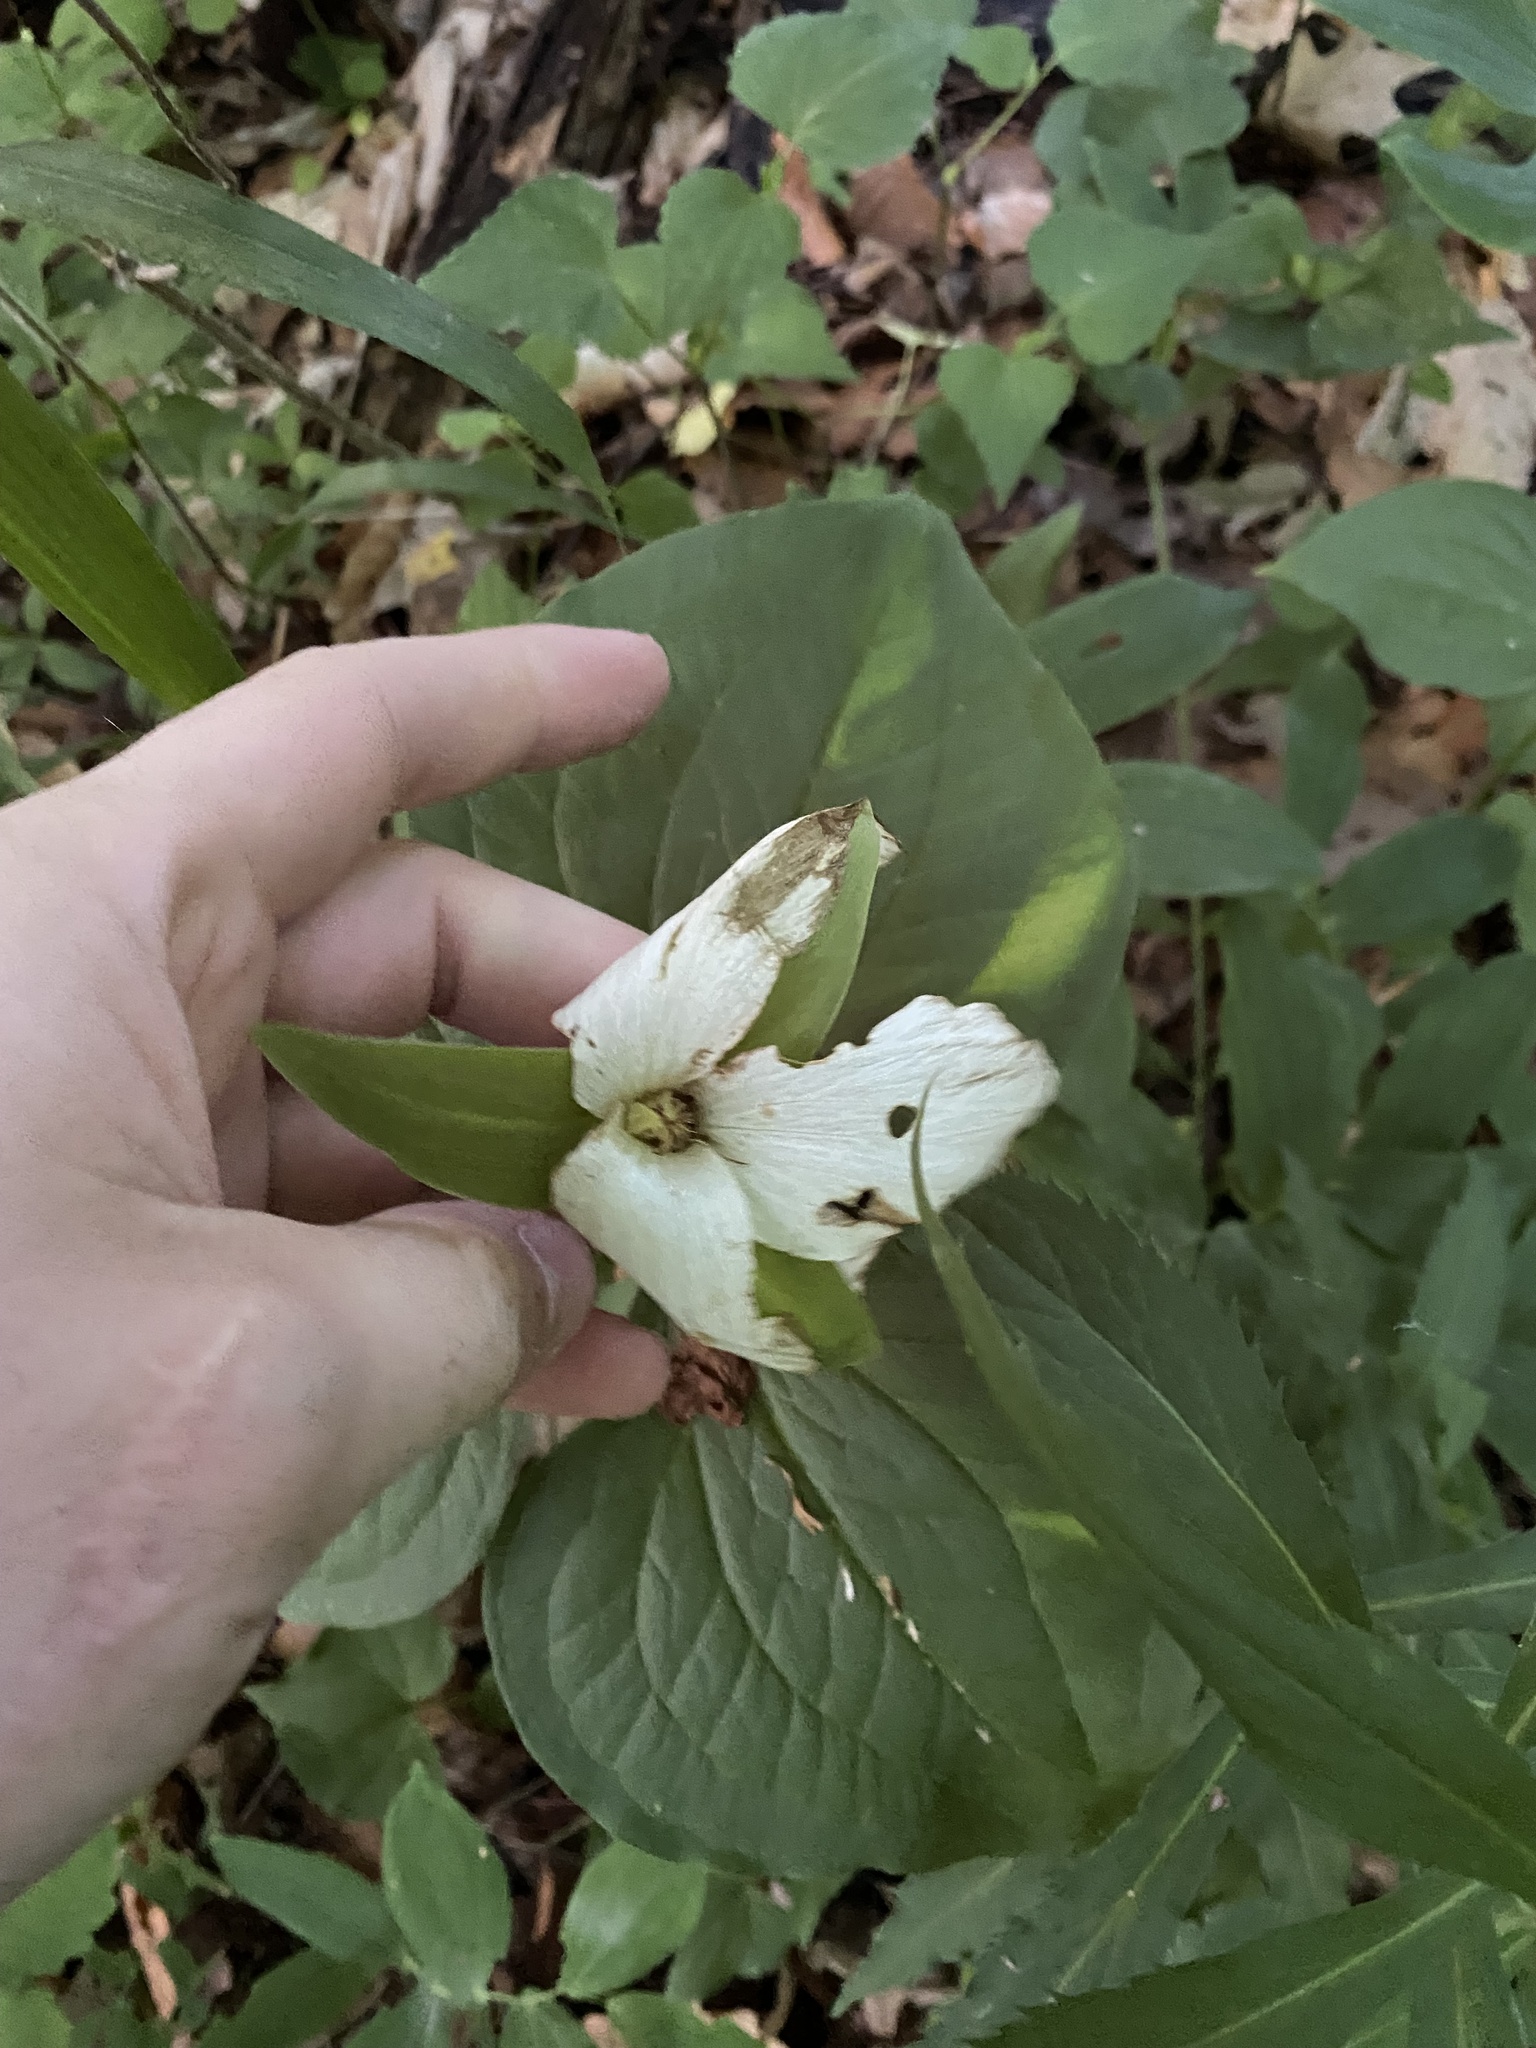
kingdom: Plantae
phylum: Tracheophyta
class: Liliopsida
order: Liliales
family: Melanthiaceae
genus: Trillium
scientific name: Trillium flexipes
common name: Drooping trillium
